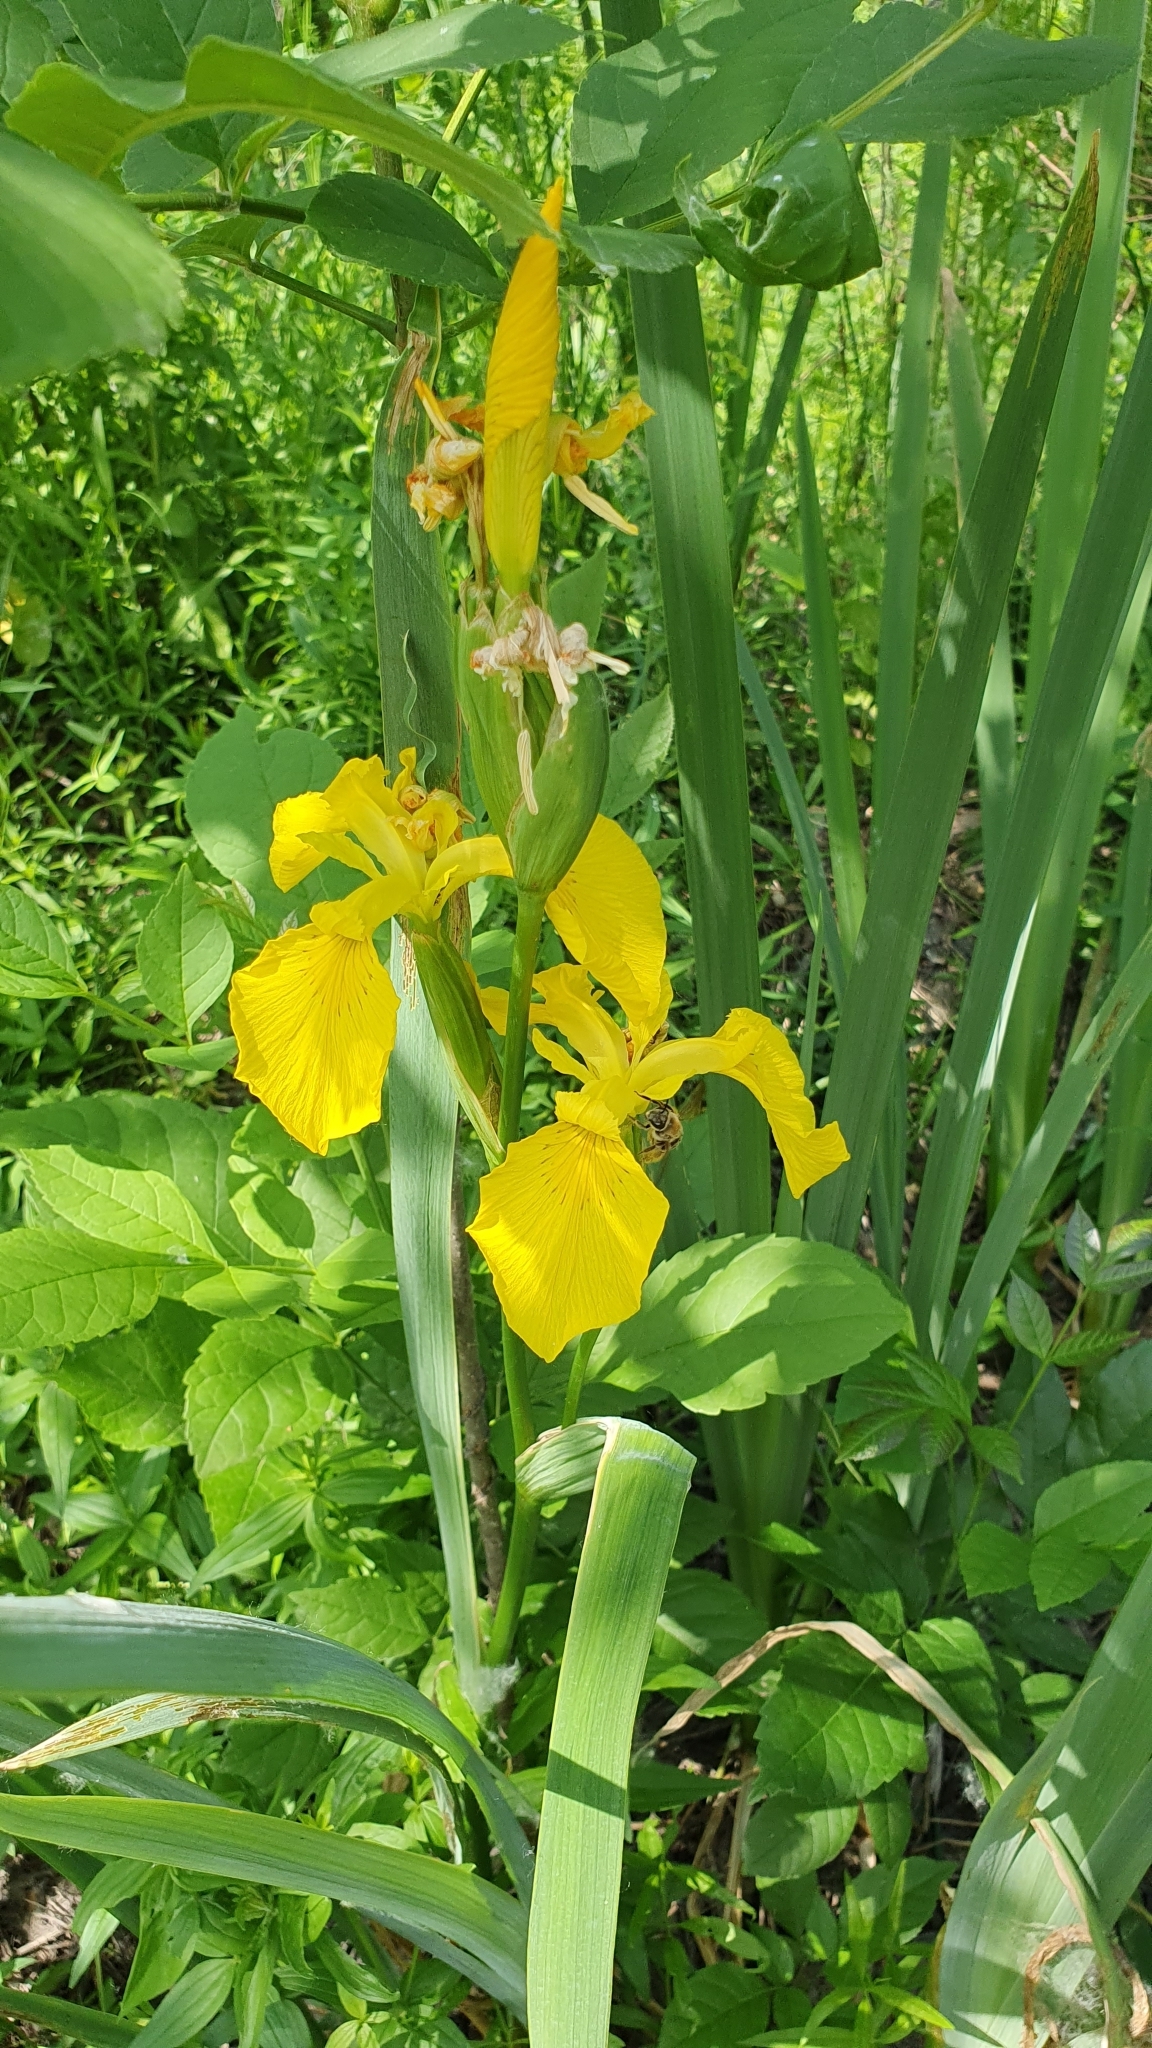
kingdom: Plantae
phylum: Tracheophyta
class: Liliopsida
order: Asparagales
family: Iridaceae
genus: Iris
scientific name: Iris pseudacorus
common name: Yellow flag
